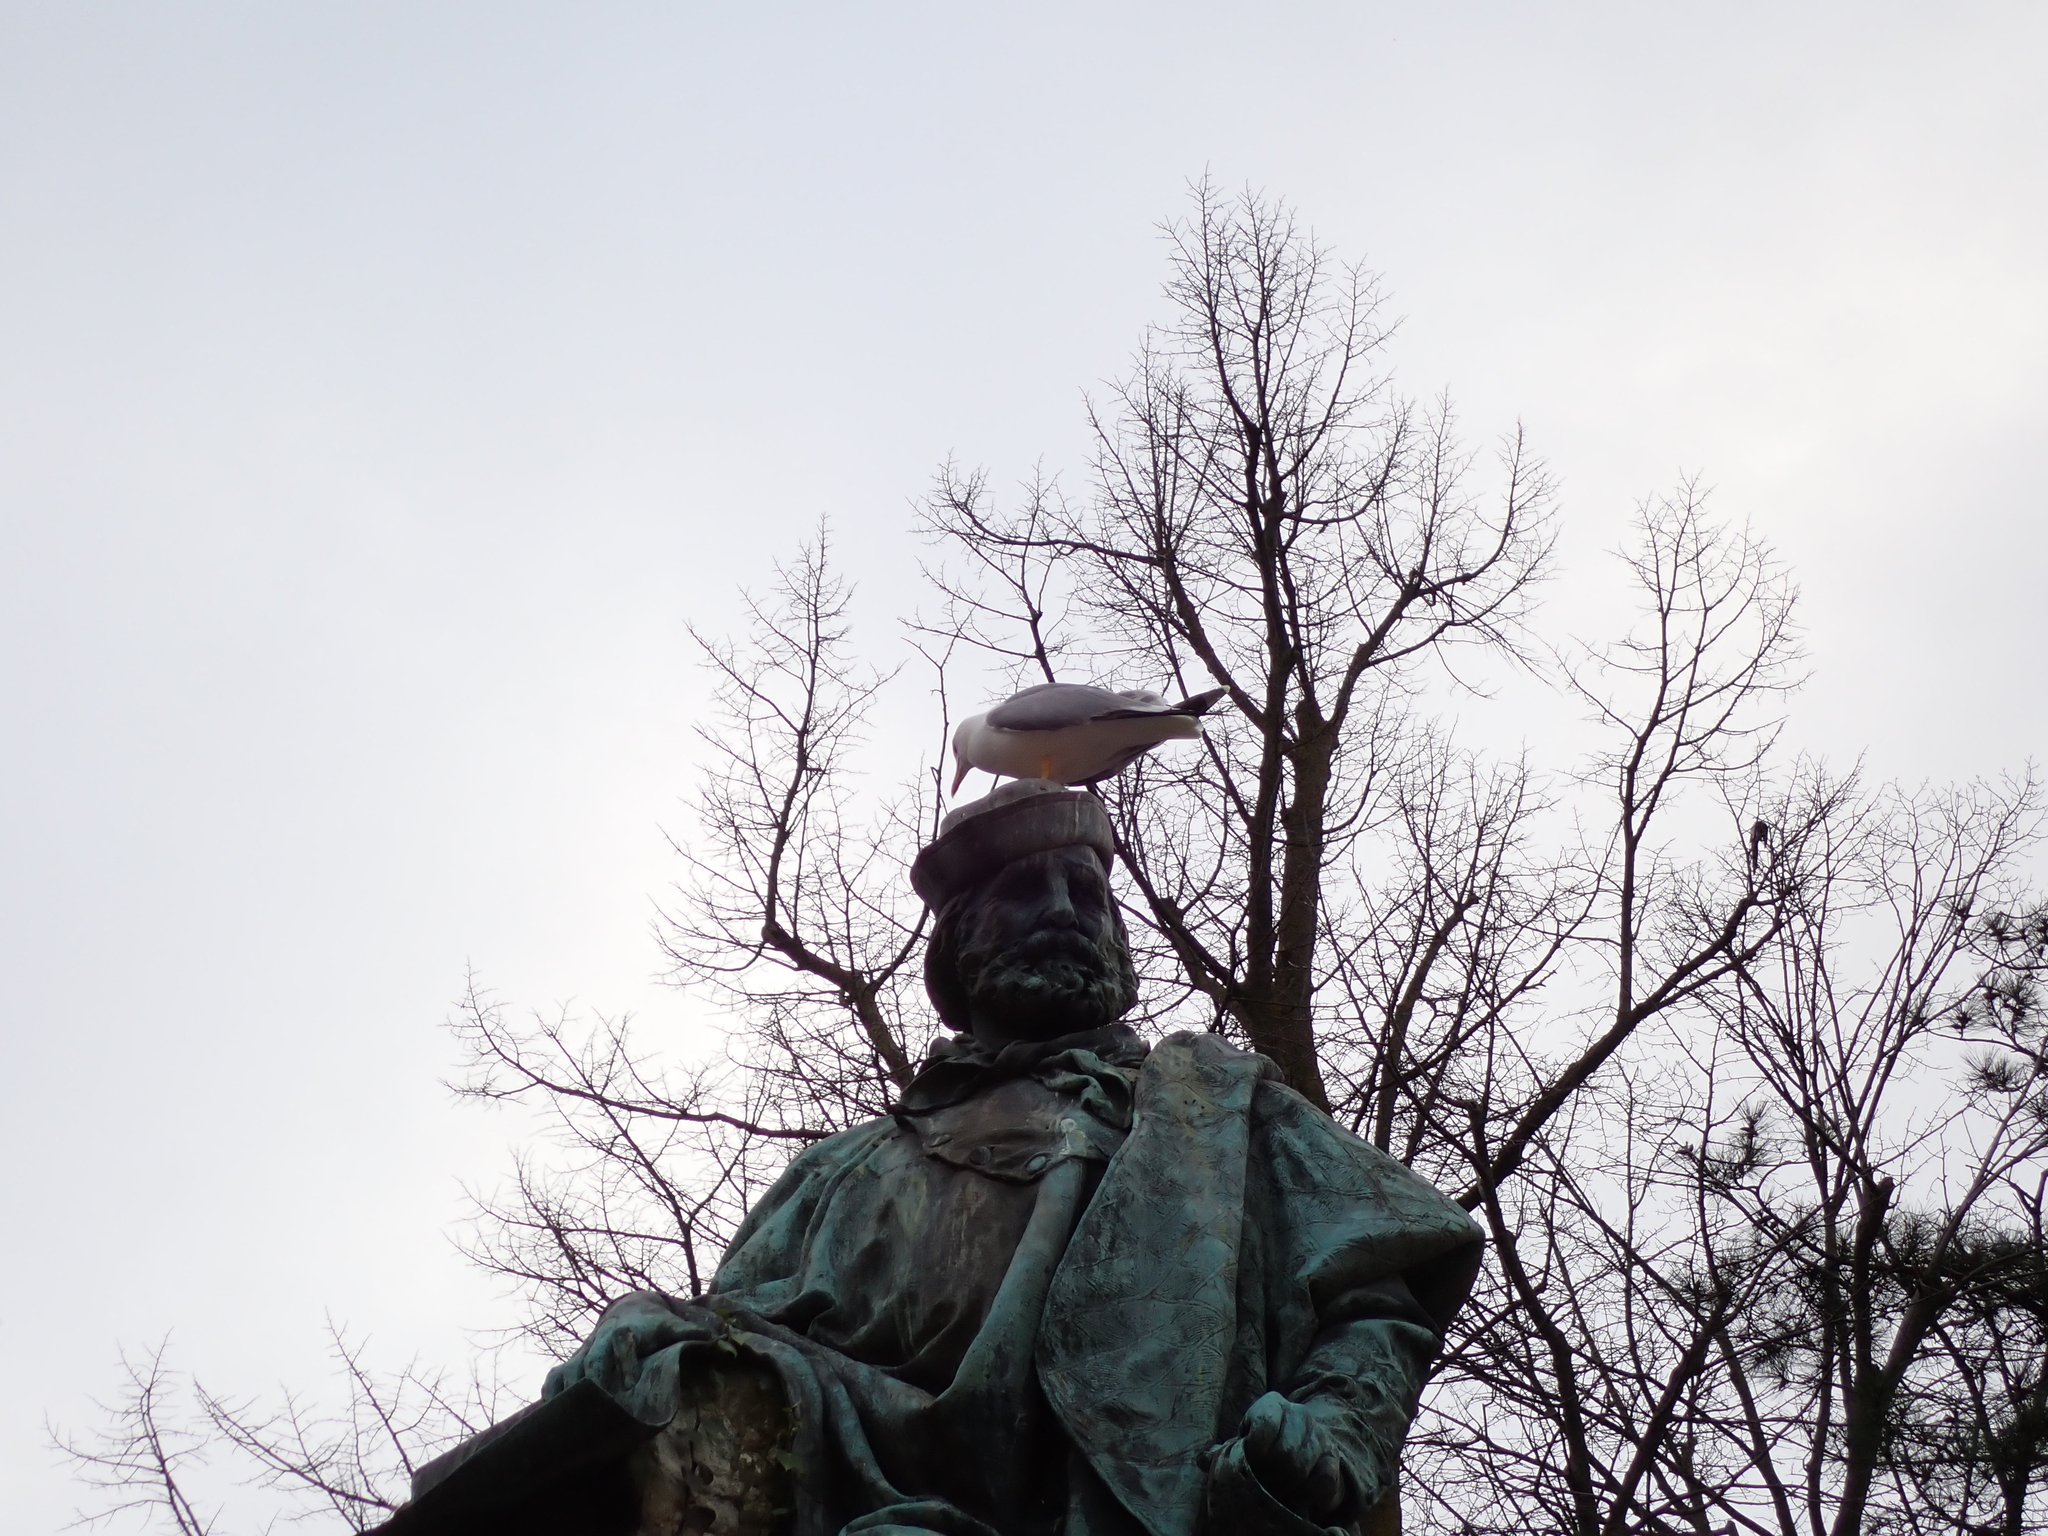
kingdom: Animalia
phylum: Chordata
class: Aves
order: Charadriiformes
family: Laridae
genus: Larus
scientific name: Larus michahellis
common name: Yellow-legged gull
